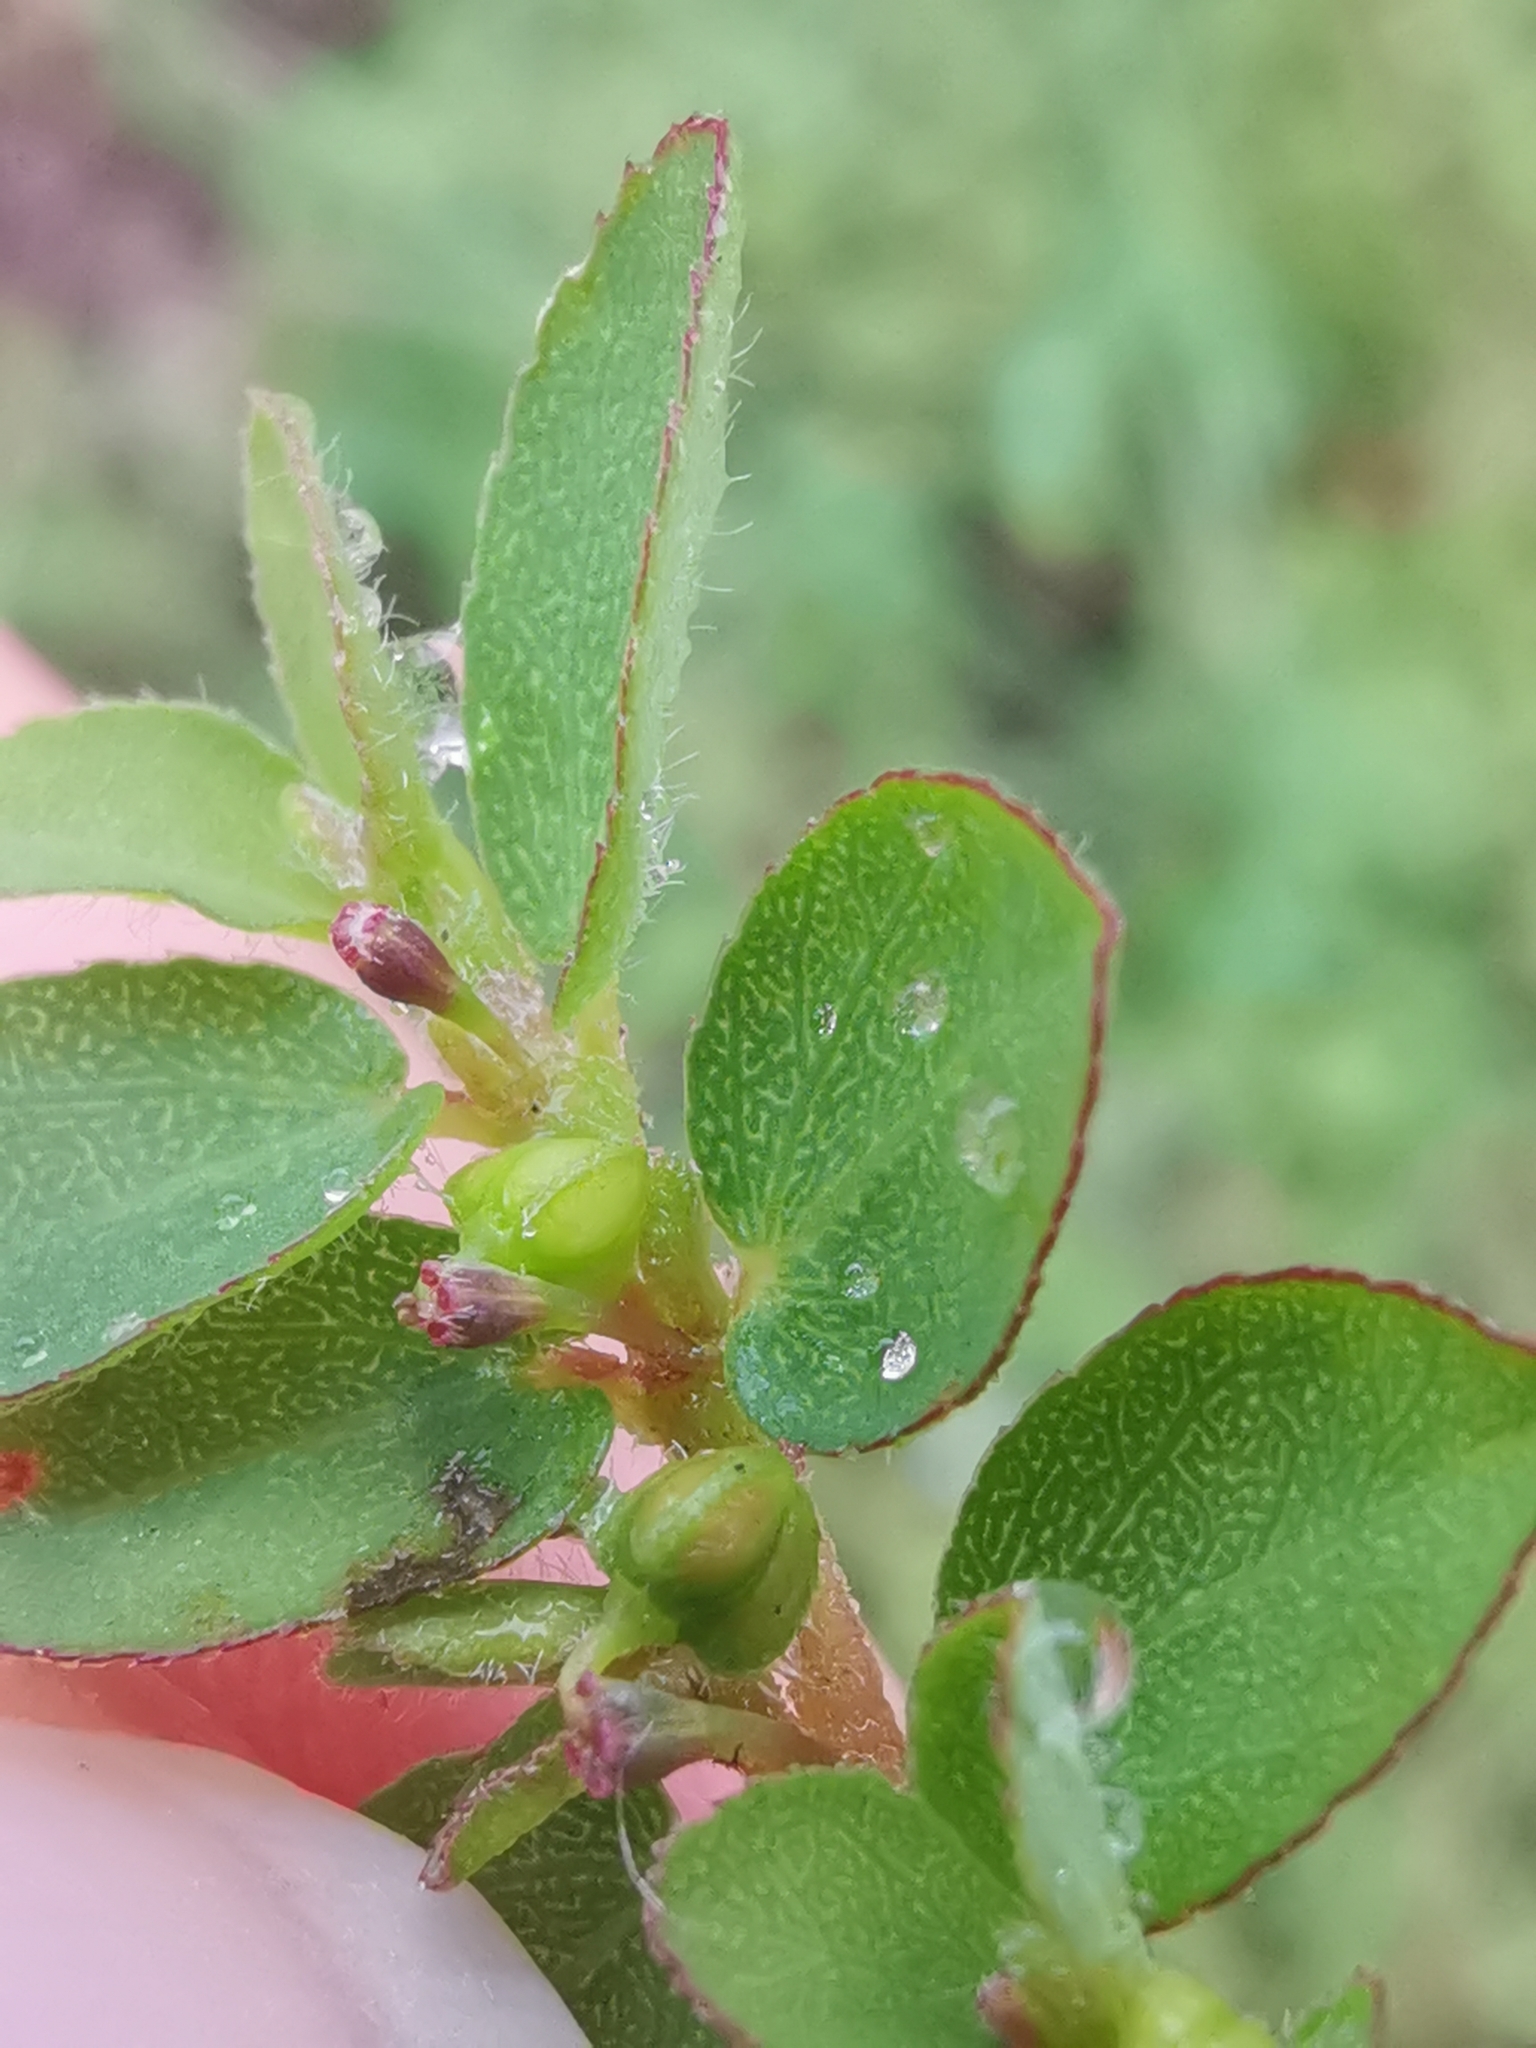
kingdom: Plantae
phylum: Tracheophyta
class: Magnoliopsida
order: Malpighiales
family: Euphorbiaceae
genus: Euphorbia
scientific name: Euphorbia prostrata
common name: Prostrate sandmat
